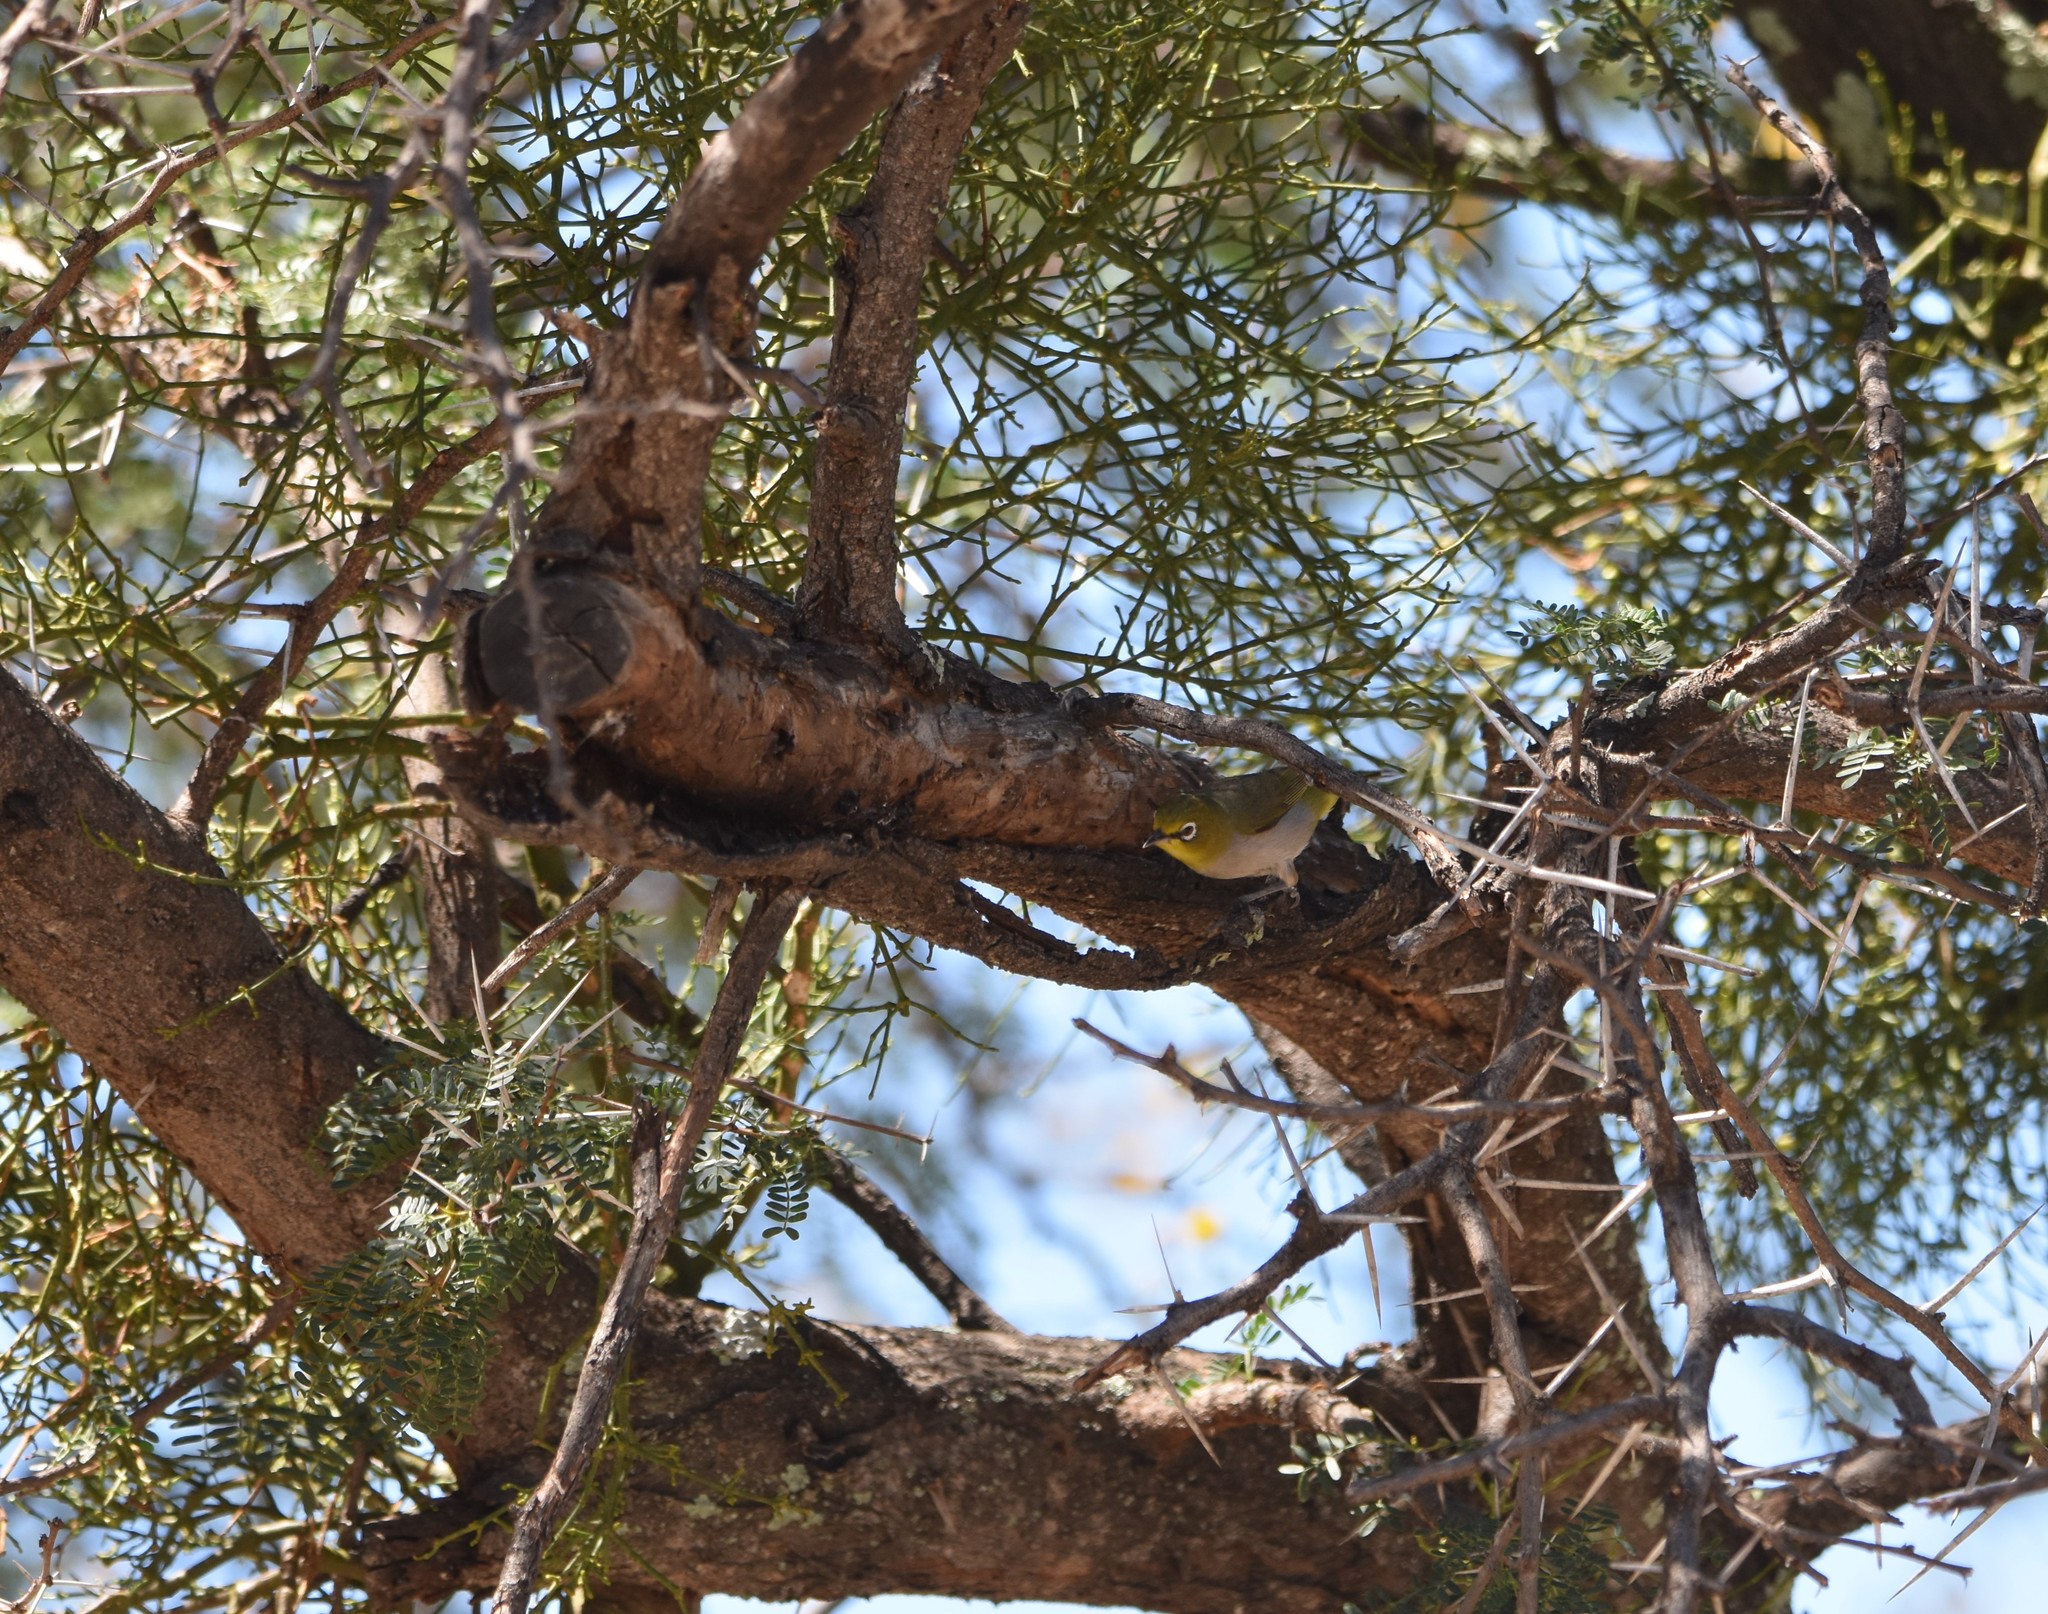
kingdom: Animalia
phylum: Chordata
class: Aves
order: Passeriformes
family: Zosteropidae
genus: Zosterops
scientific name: Zosterops virens
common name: Cape white-eye
